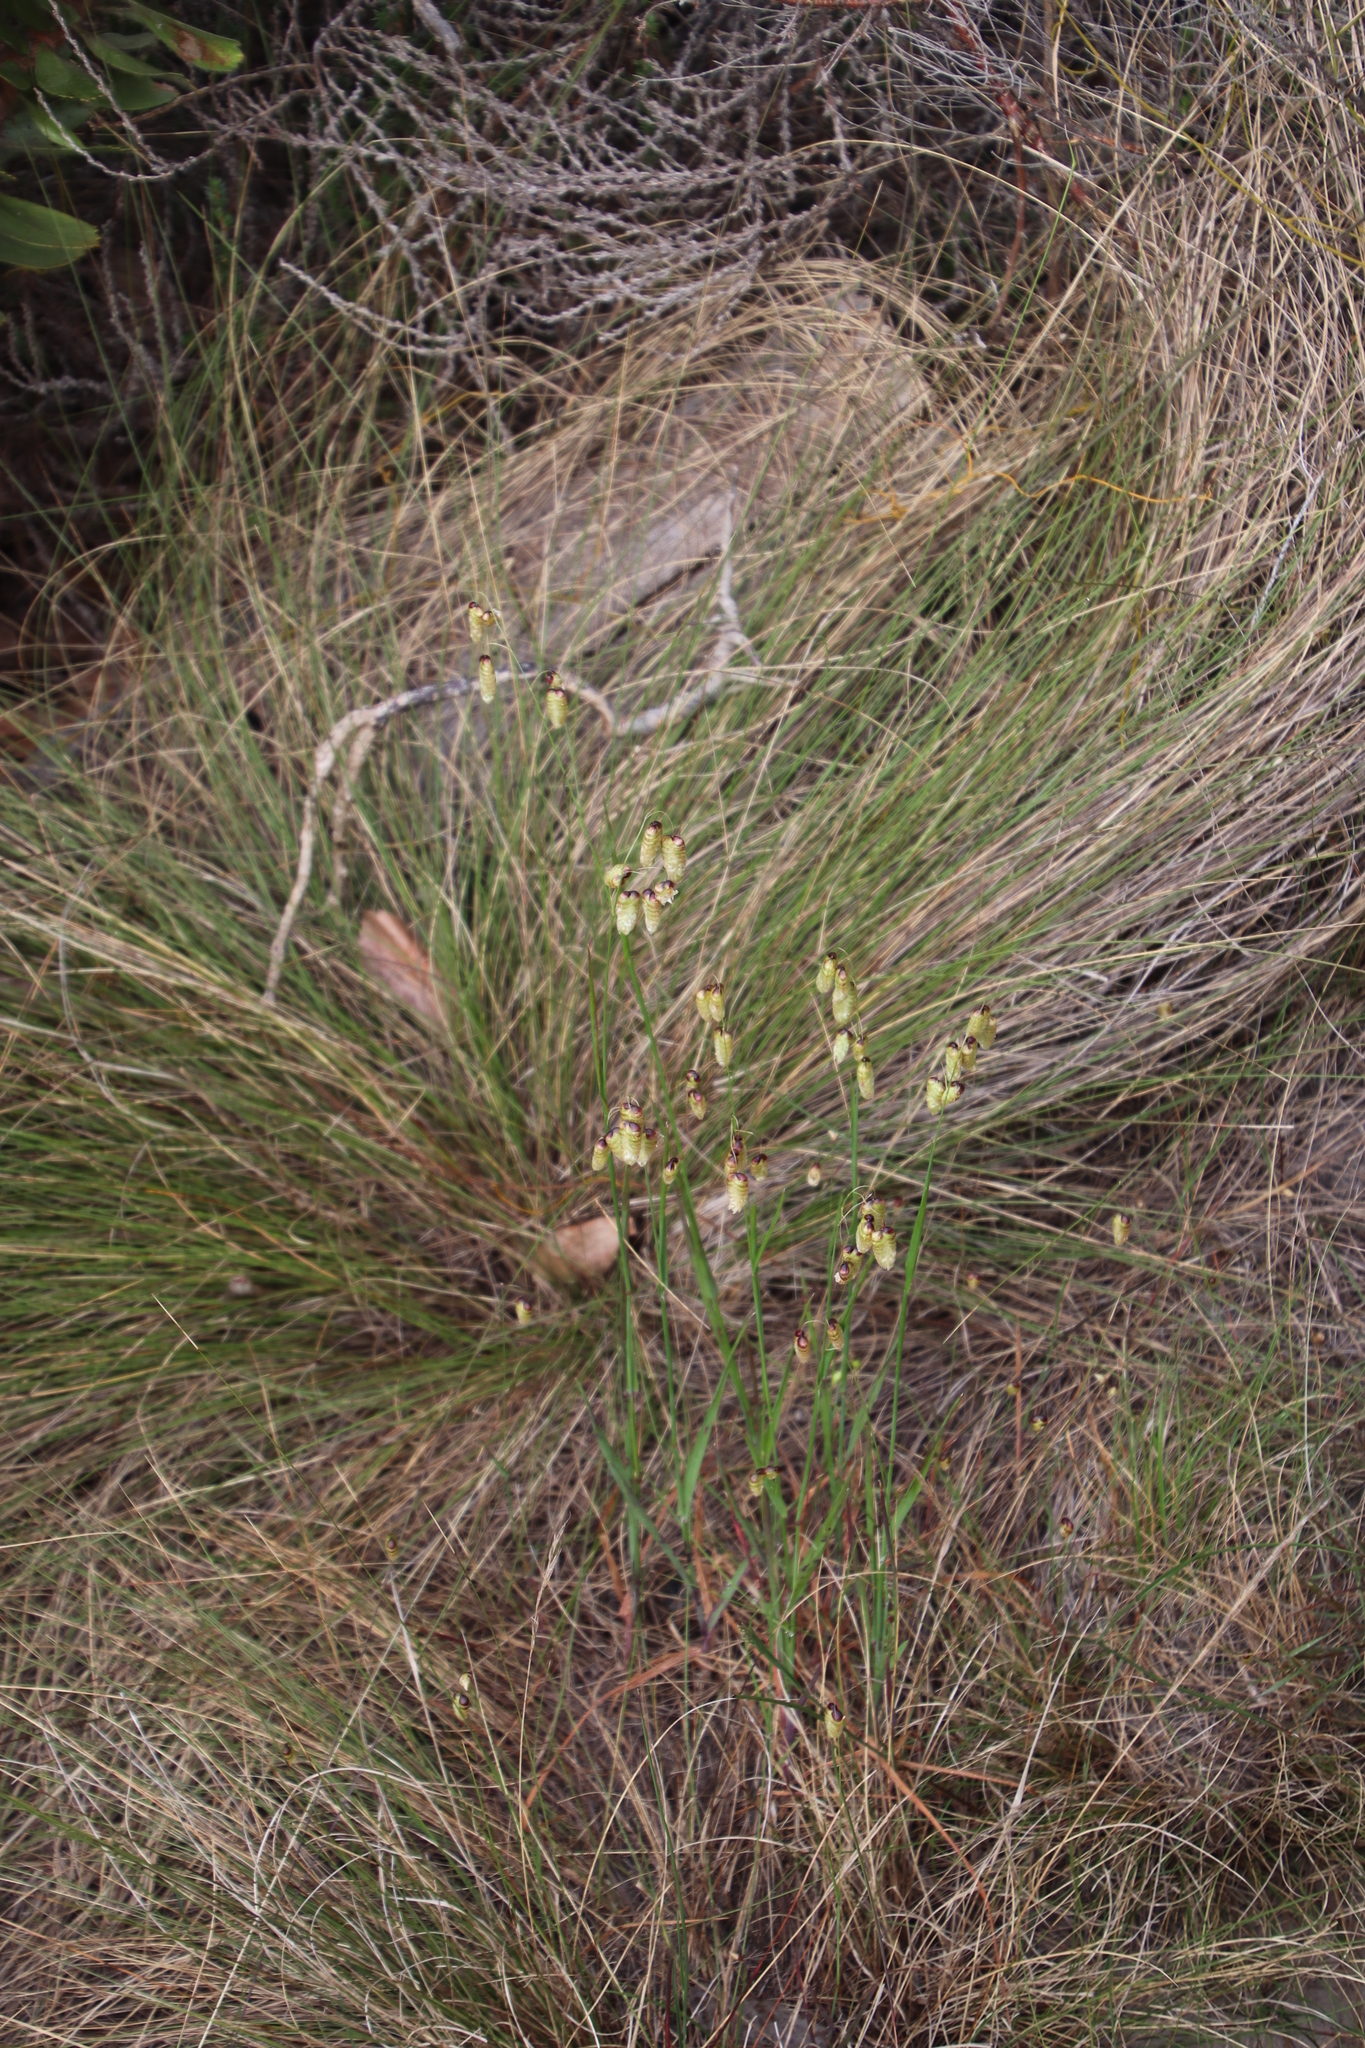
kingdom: Plantae
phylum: Tracheophyta
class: Liliopsida
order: Poales
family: Poaceae
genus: Briza
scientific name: Briza maxima
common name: Big quakinggrass
